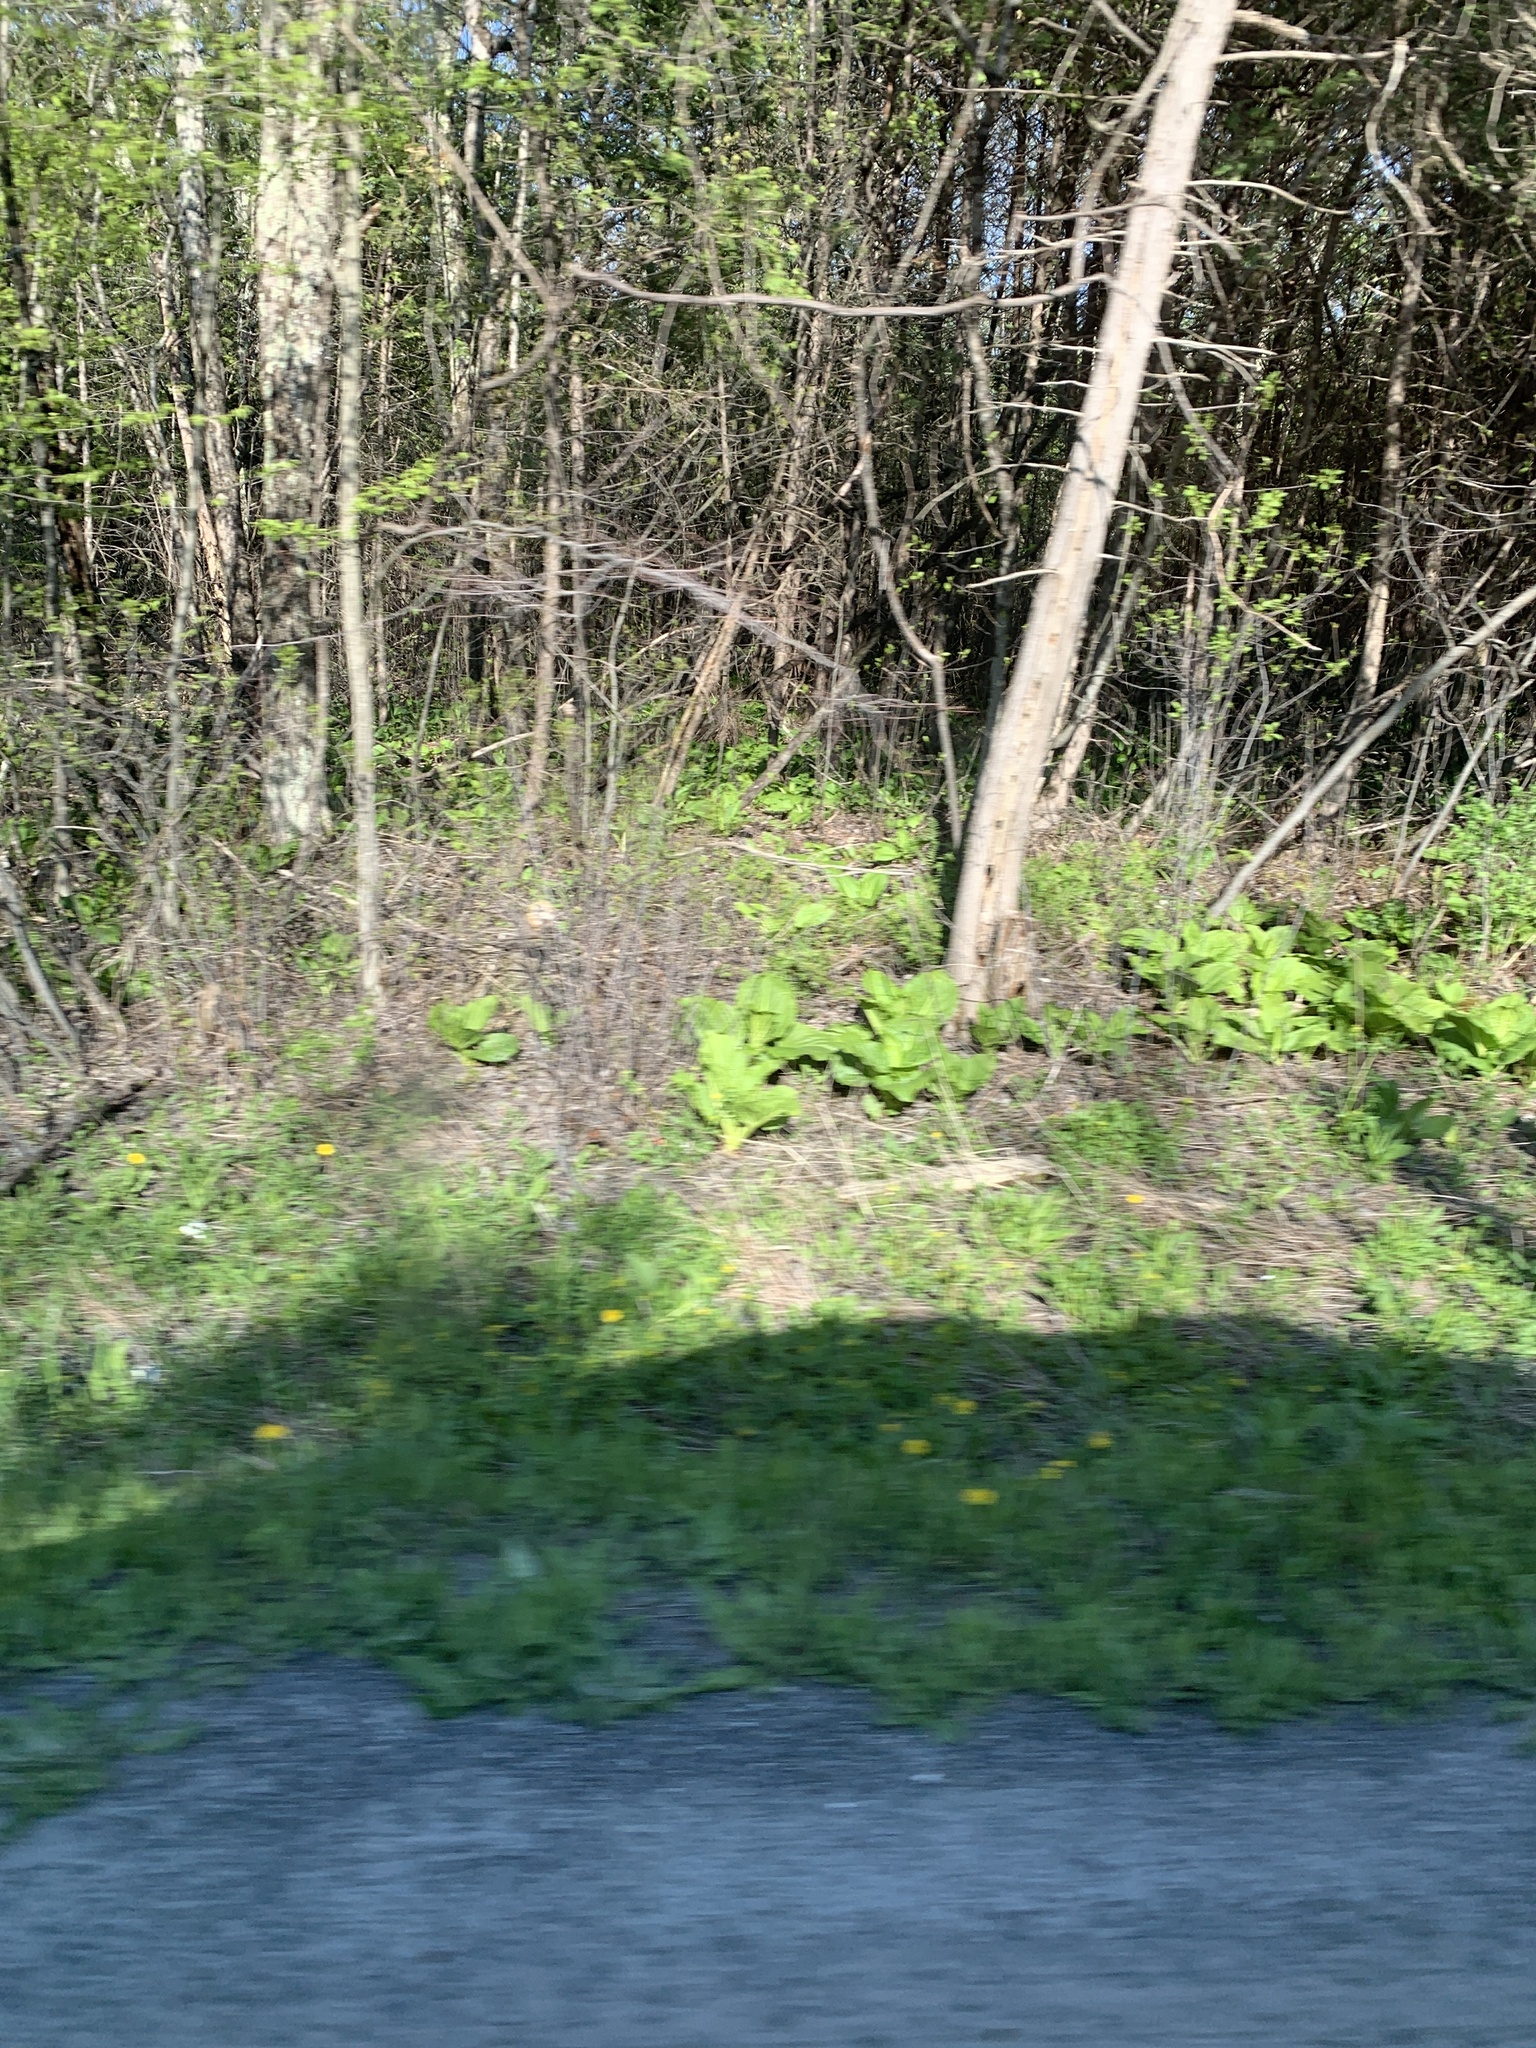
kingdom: Plantae
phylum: Tracheophyta
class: Liliopsida
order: Alismatales
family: Araceae
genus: Symplocarpus
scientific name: Symplocarpus foetidus
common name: Eastern skunk cabbage
